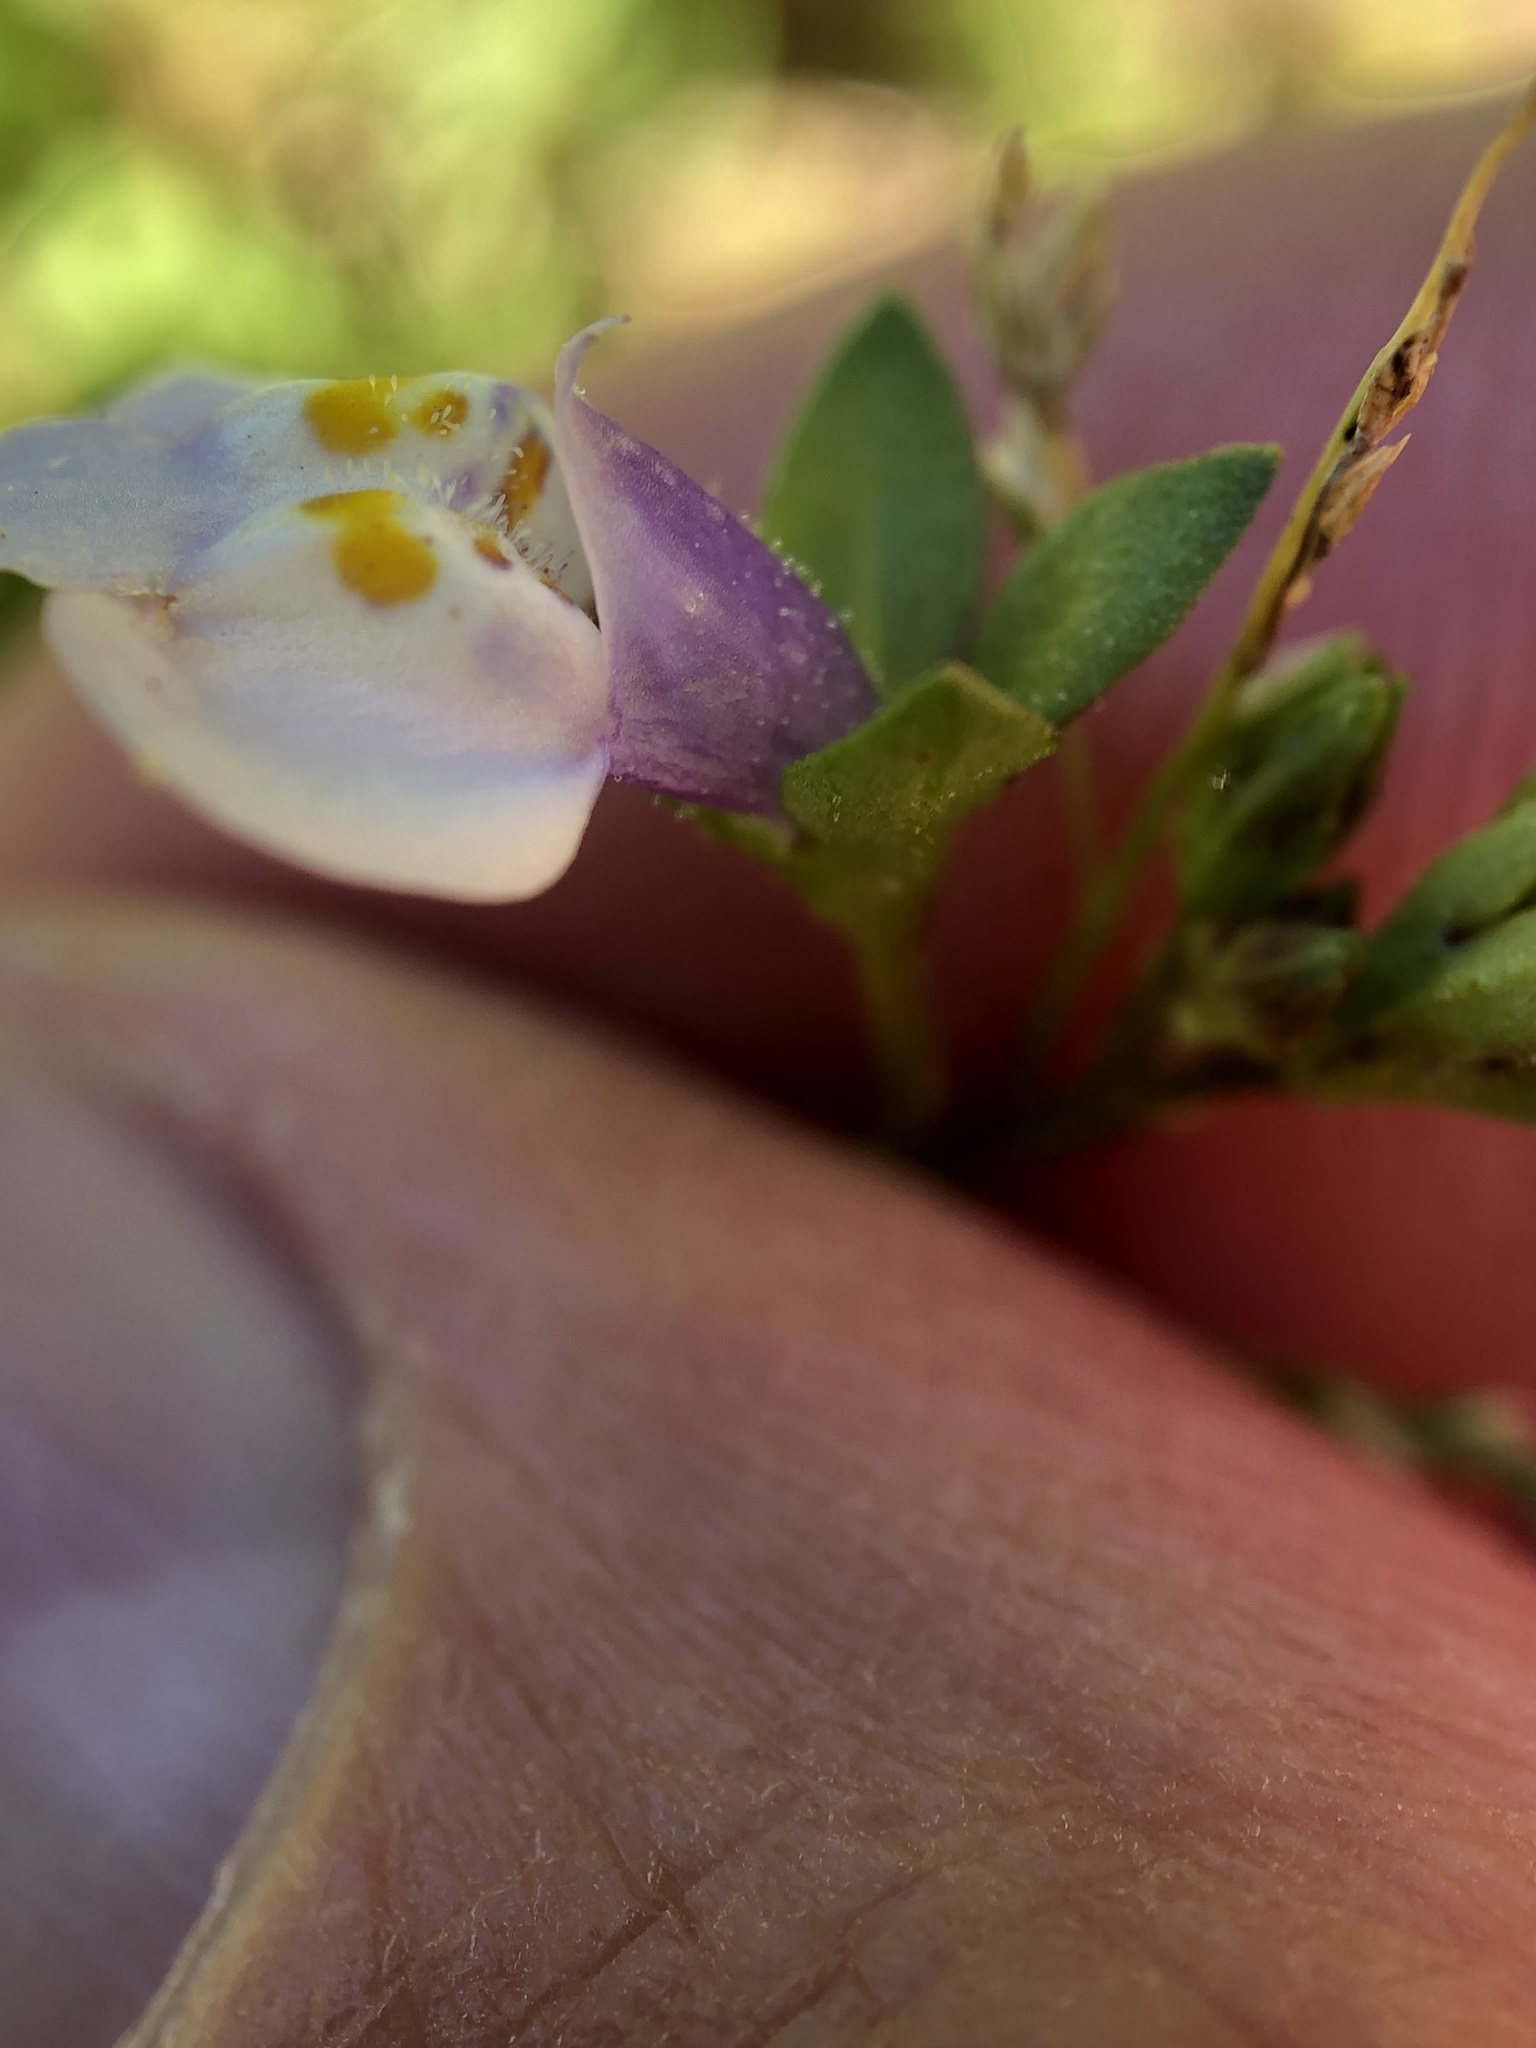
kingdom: Plantae
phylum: Tracheophyta
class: Magnoliopsida
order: Lamiales
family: Mazaceae
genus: Mazus
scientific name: Mazus pumilus
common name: Japanese mazus
